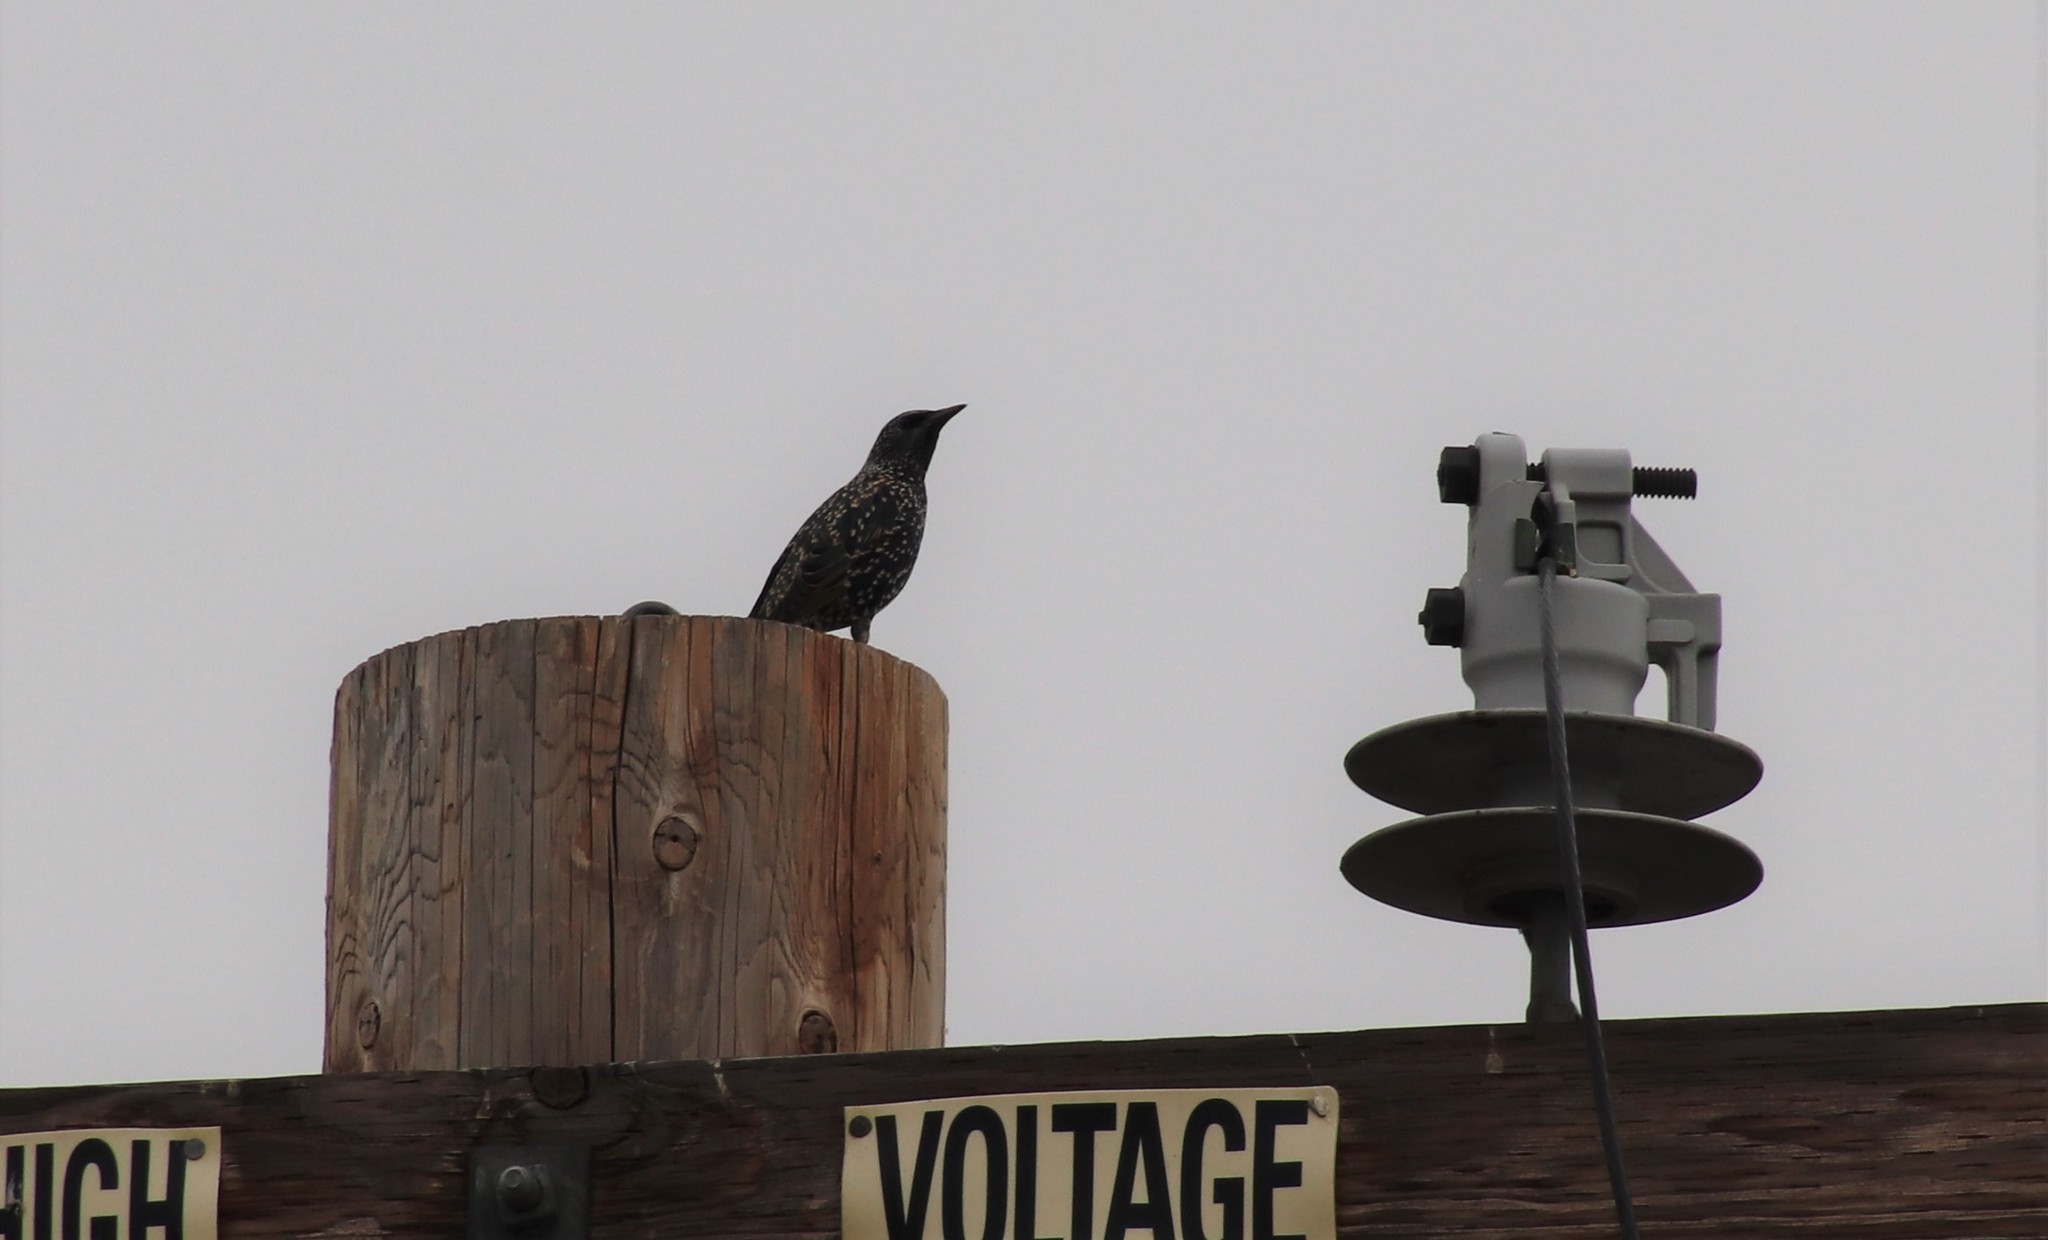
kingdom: Animalia
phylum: Chordata
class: Aves
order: Passeriformes
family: Sturnidae
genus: Sturnus
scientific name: Sturnus vulgaris
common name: Common starling
